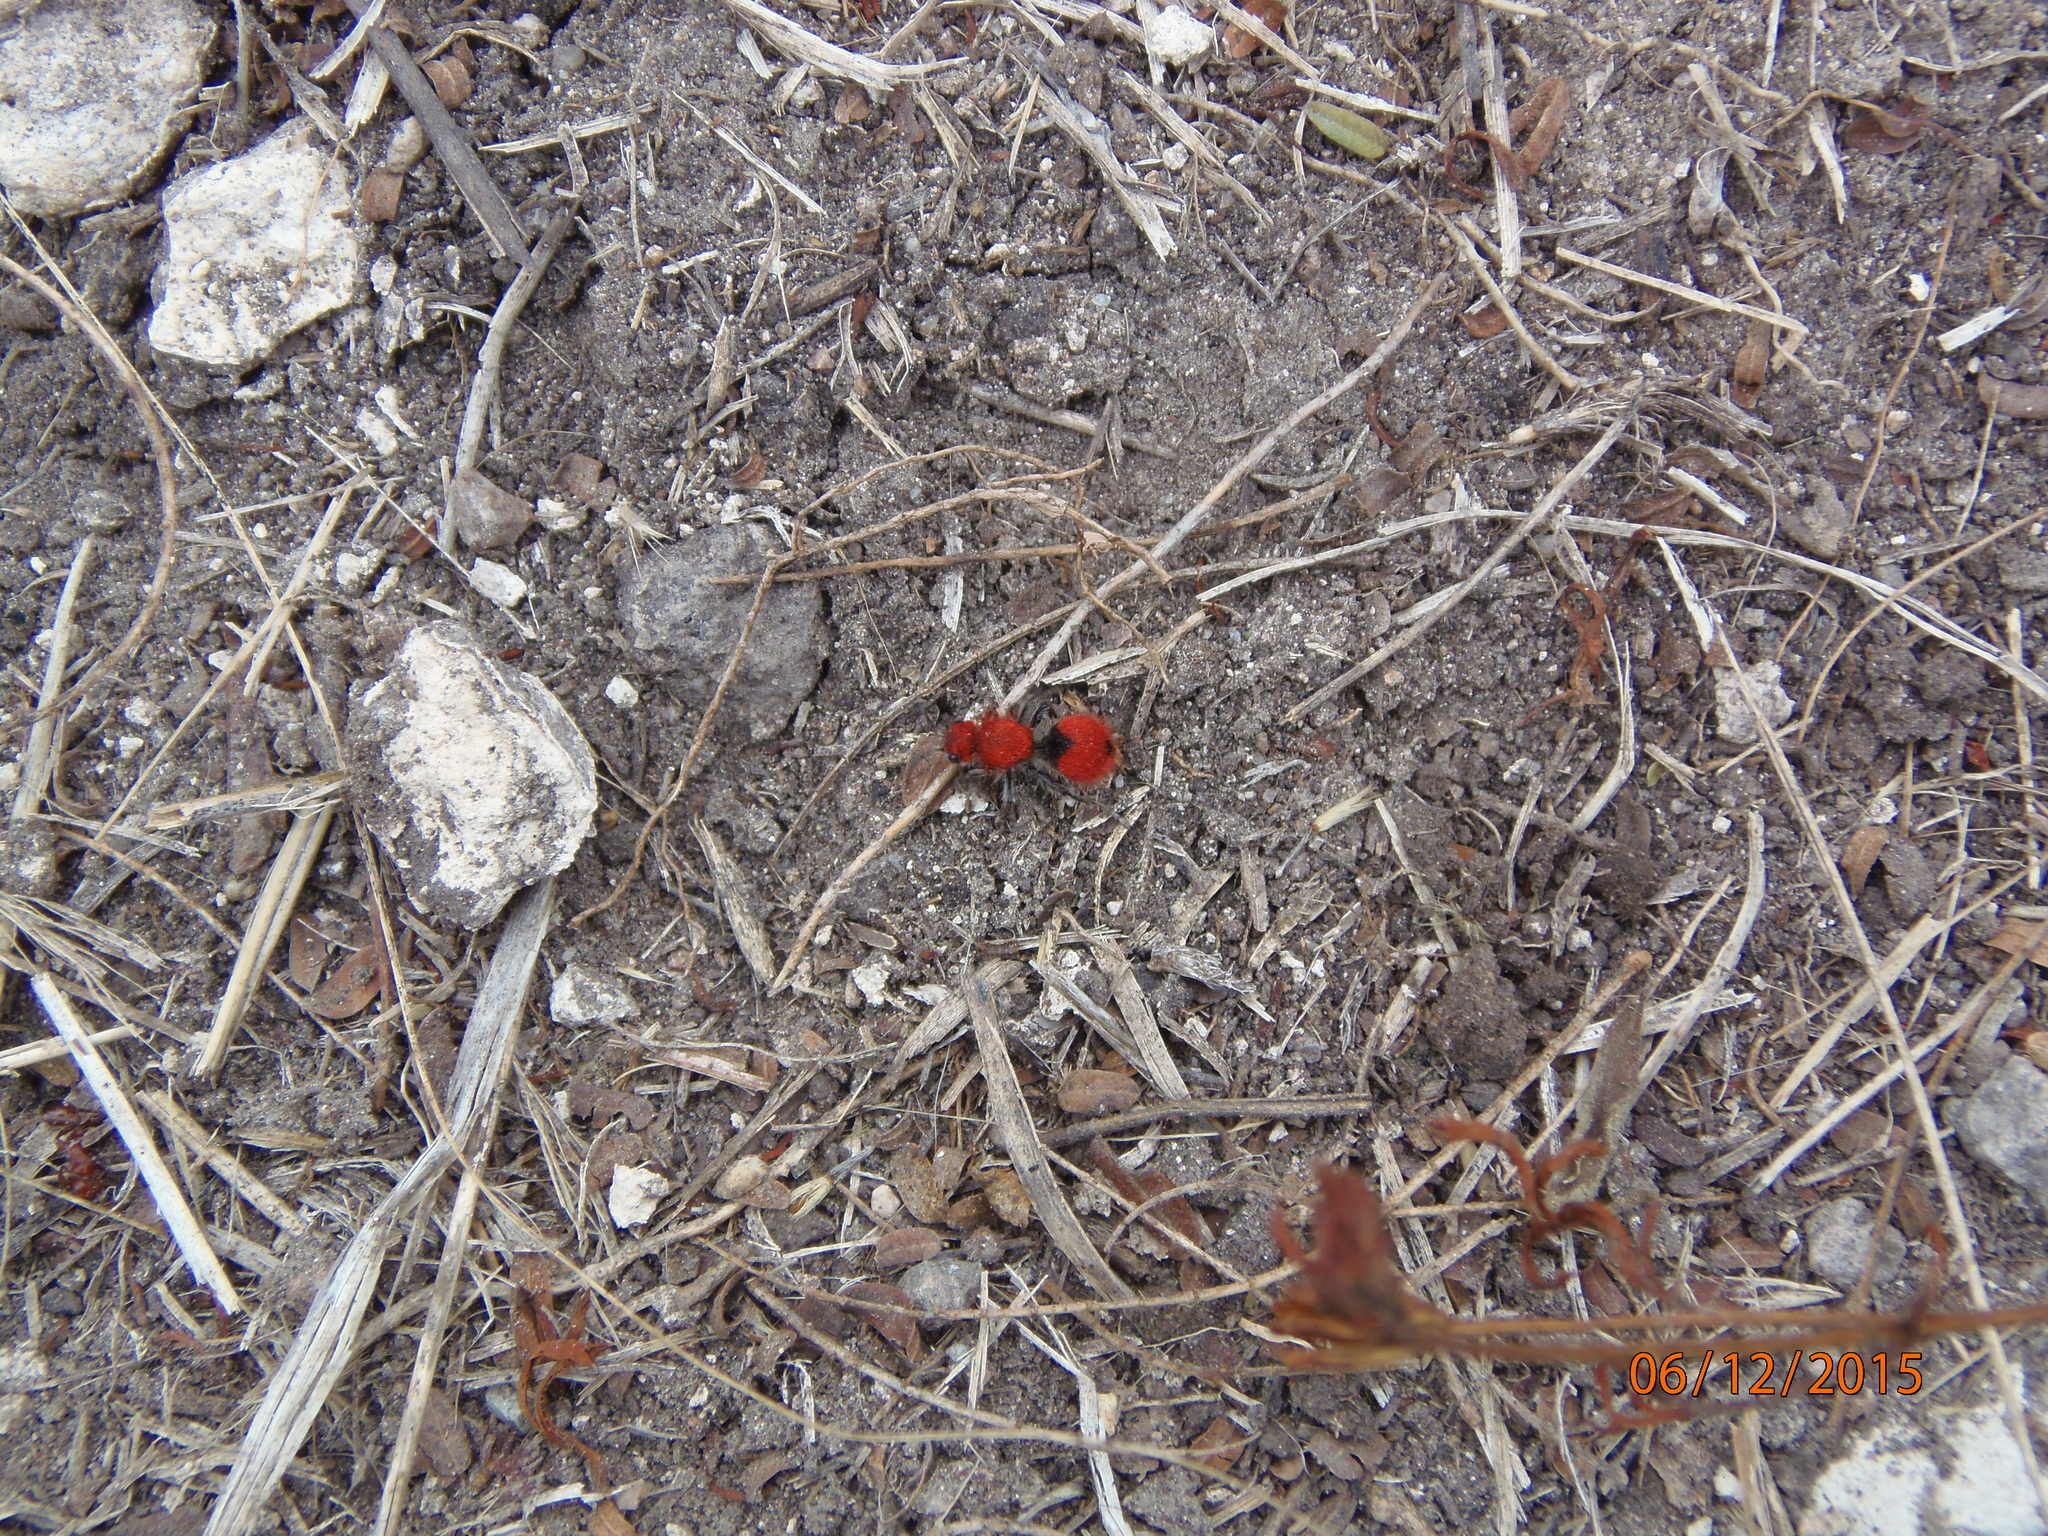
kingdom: Animalia
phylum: Arthropoda
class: Insecta
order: Hymenoptera
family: Mutillidae
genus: Dasymutilla
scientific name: Dasymutilla
